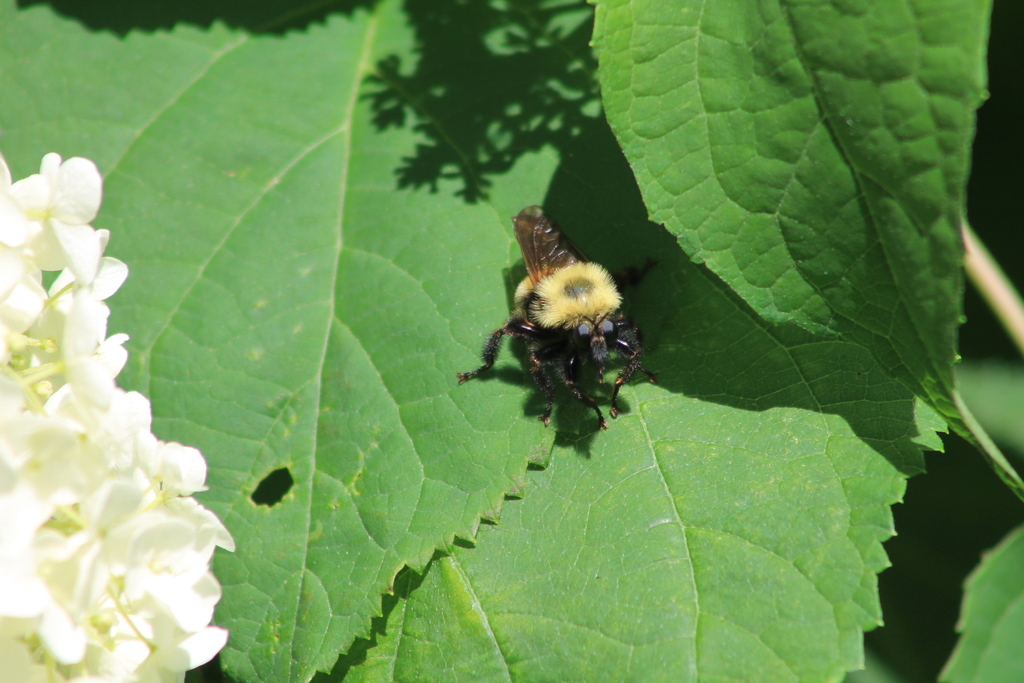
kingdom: Animalia
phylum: Arthropoda
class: Insecta
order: Diptera
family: Asilidae
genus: Laphria
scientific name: Laphria thoracica
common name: Bumble bee mimic robber fly
